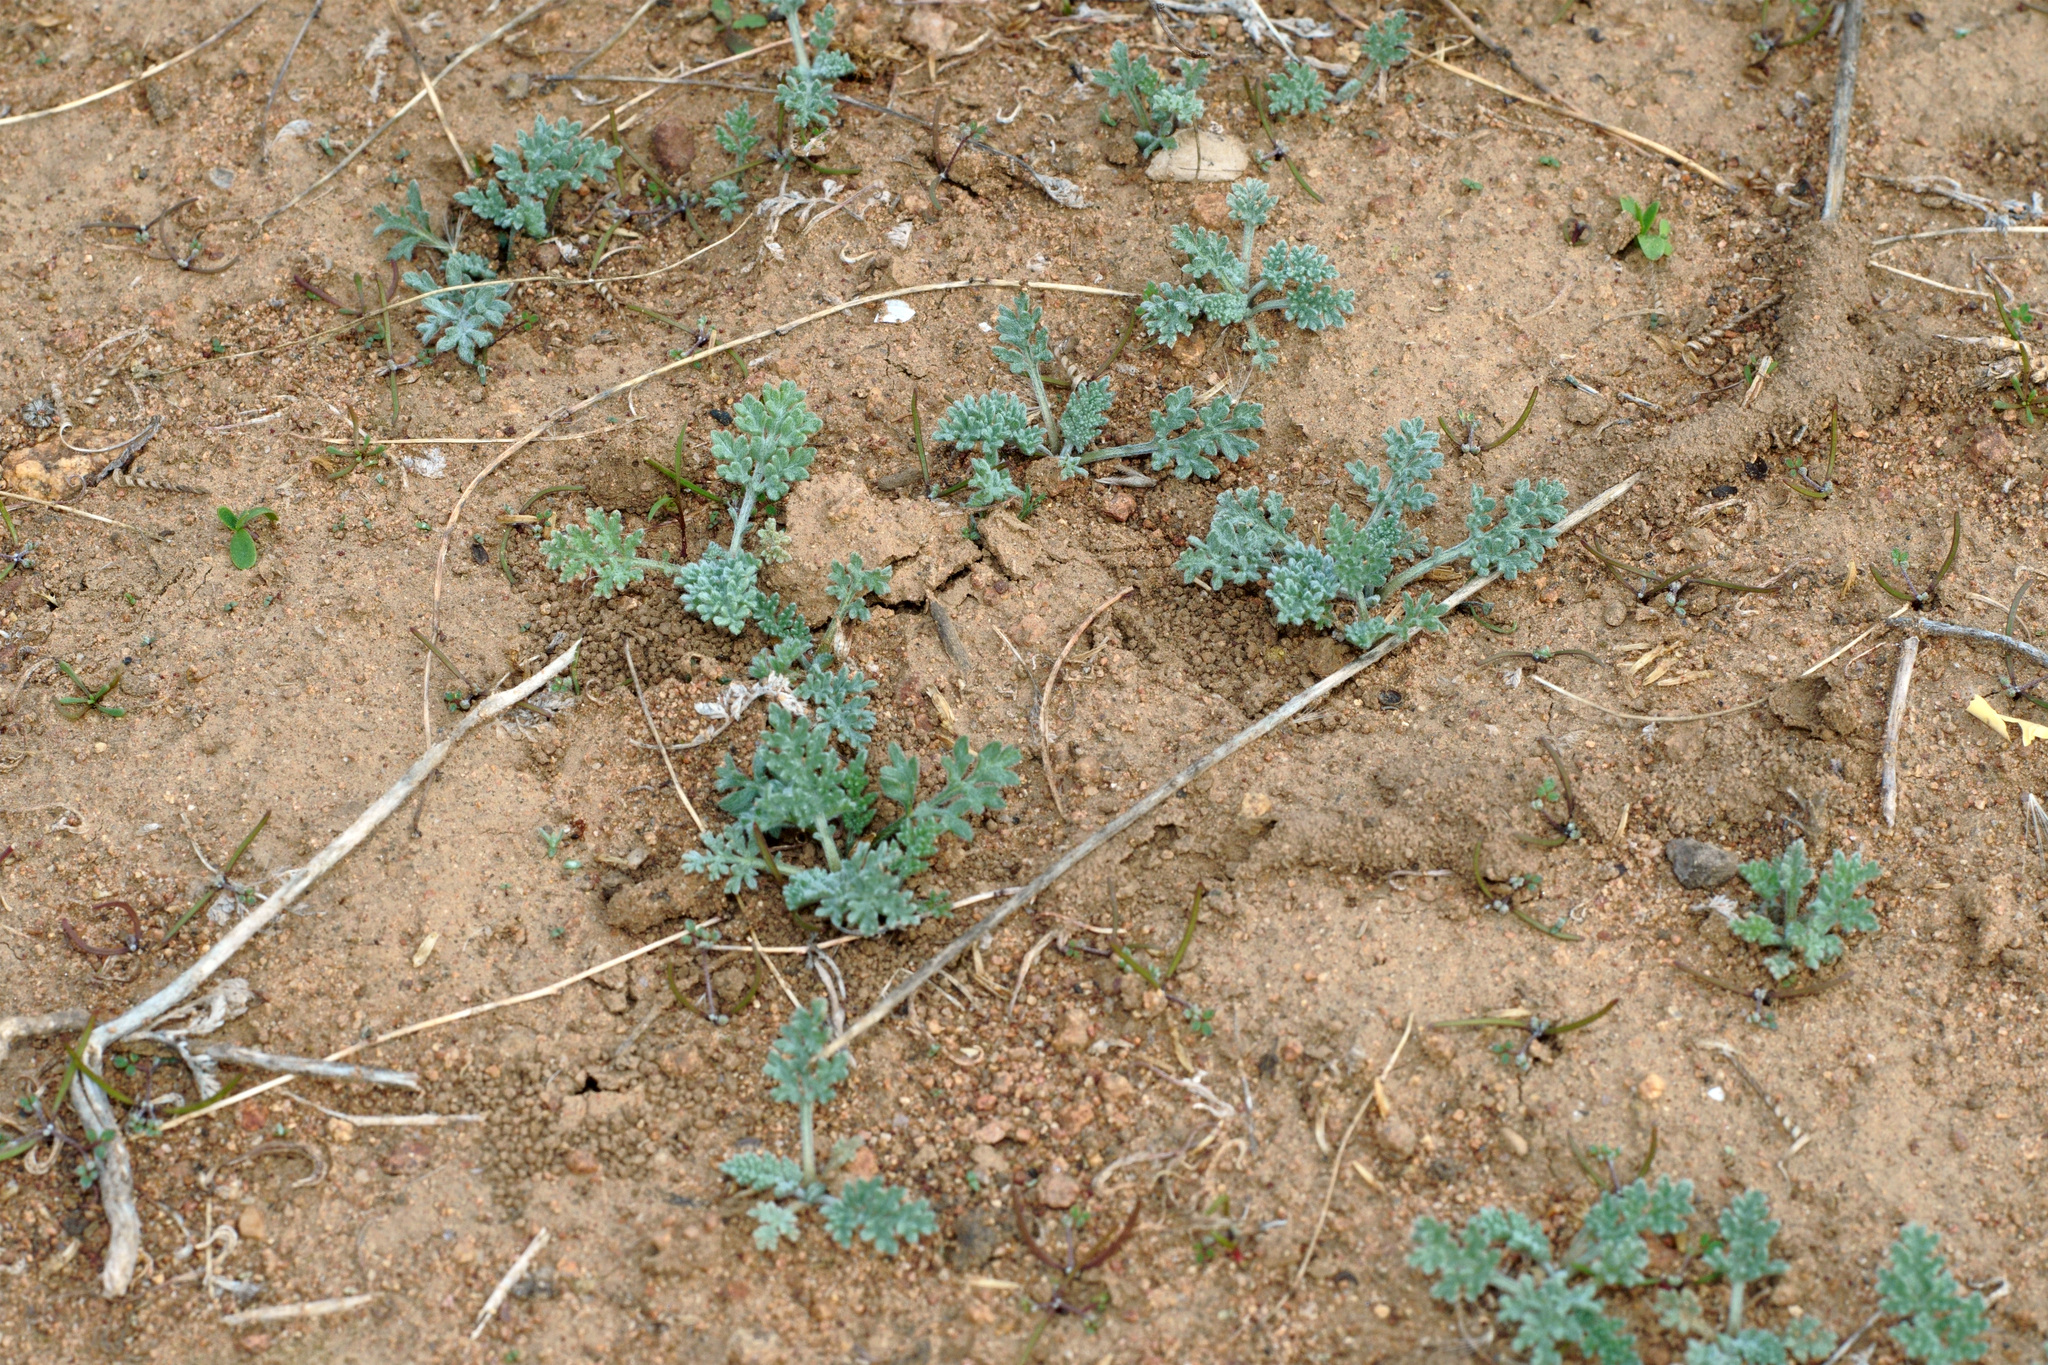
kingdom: Plantae
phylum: Tracheophyta
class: Magnoliopsida
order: Asterales
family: Asteraceae
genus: Ambrosia
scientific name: Ambrosia pumila
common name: San diego ambrosia
